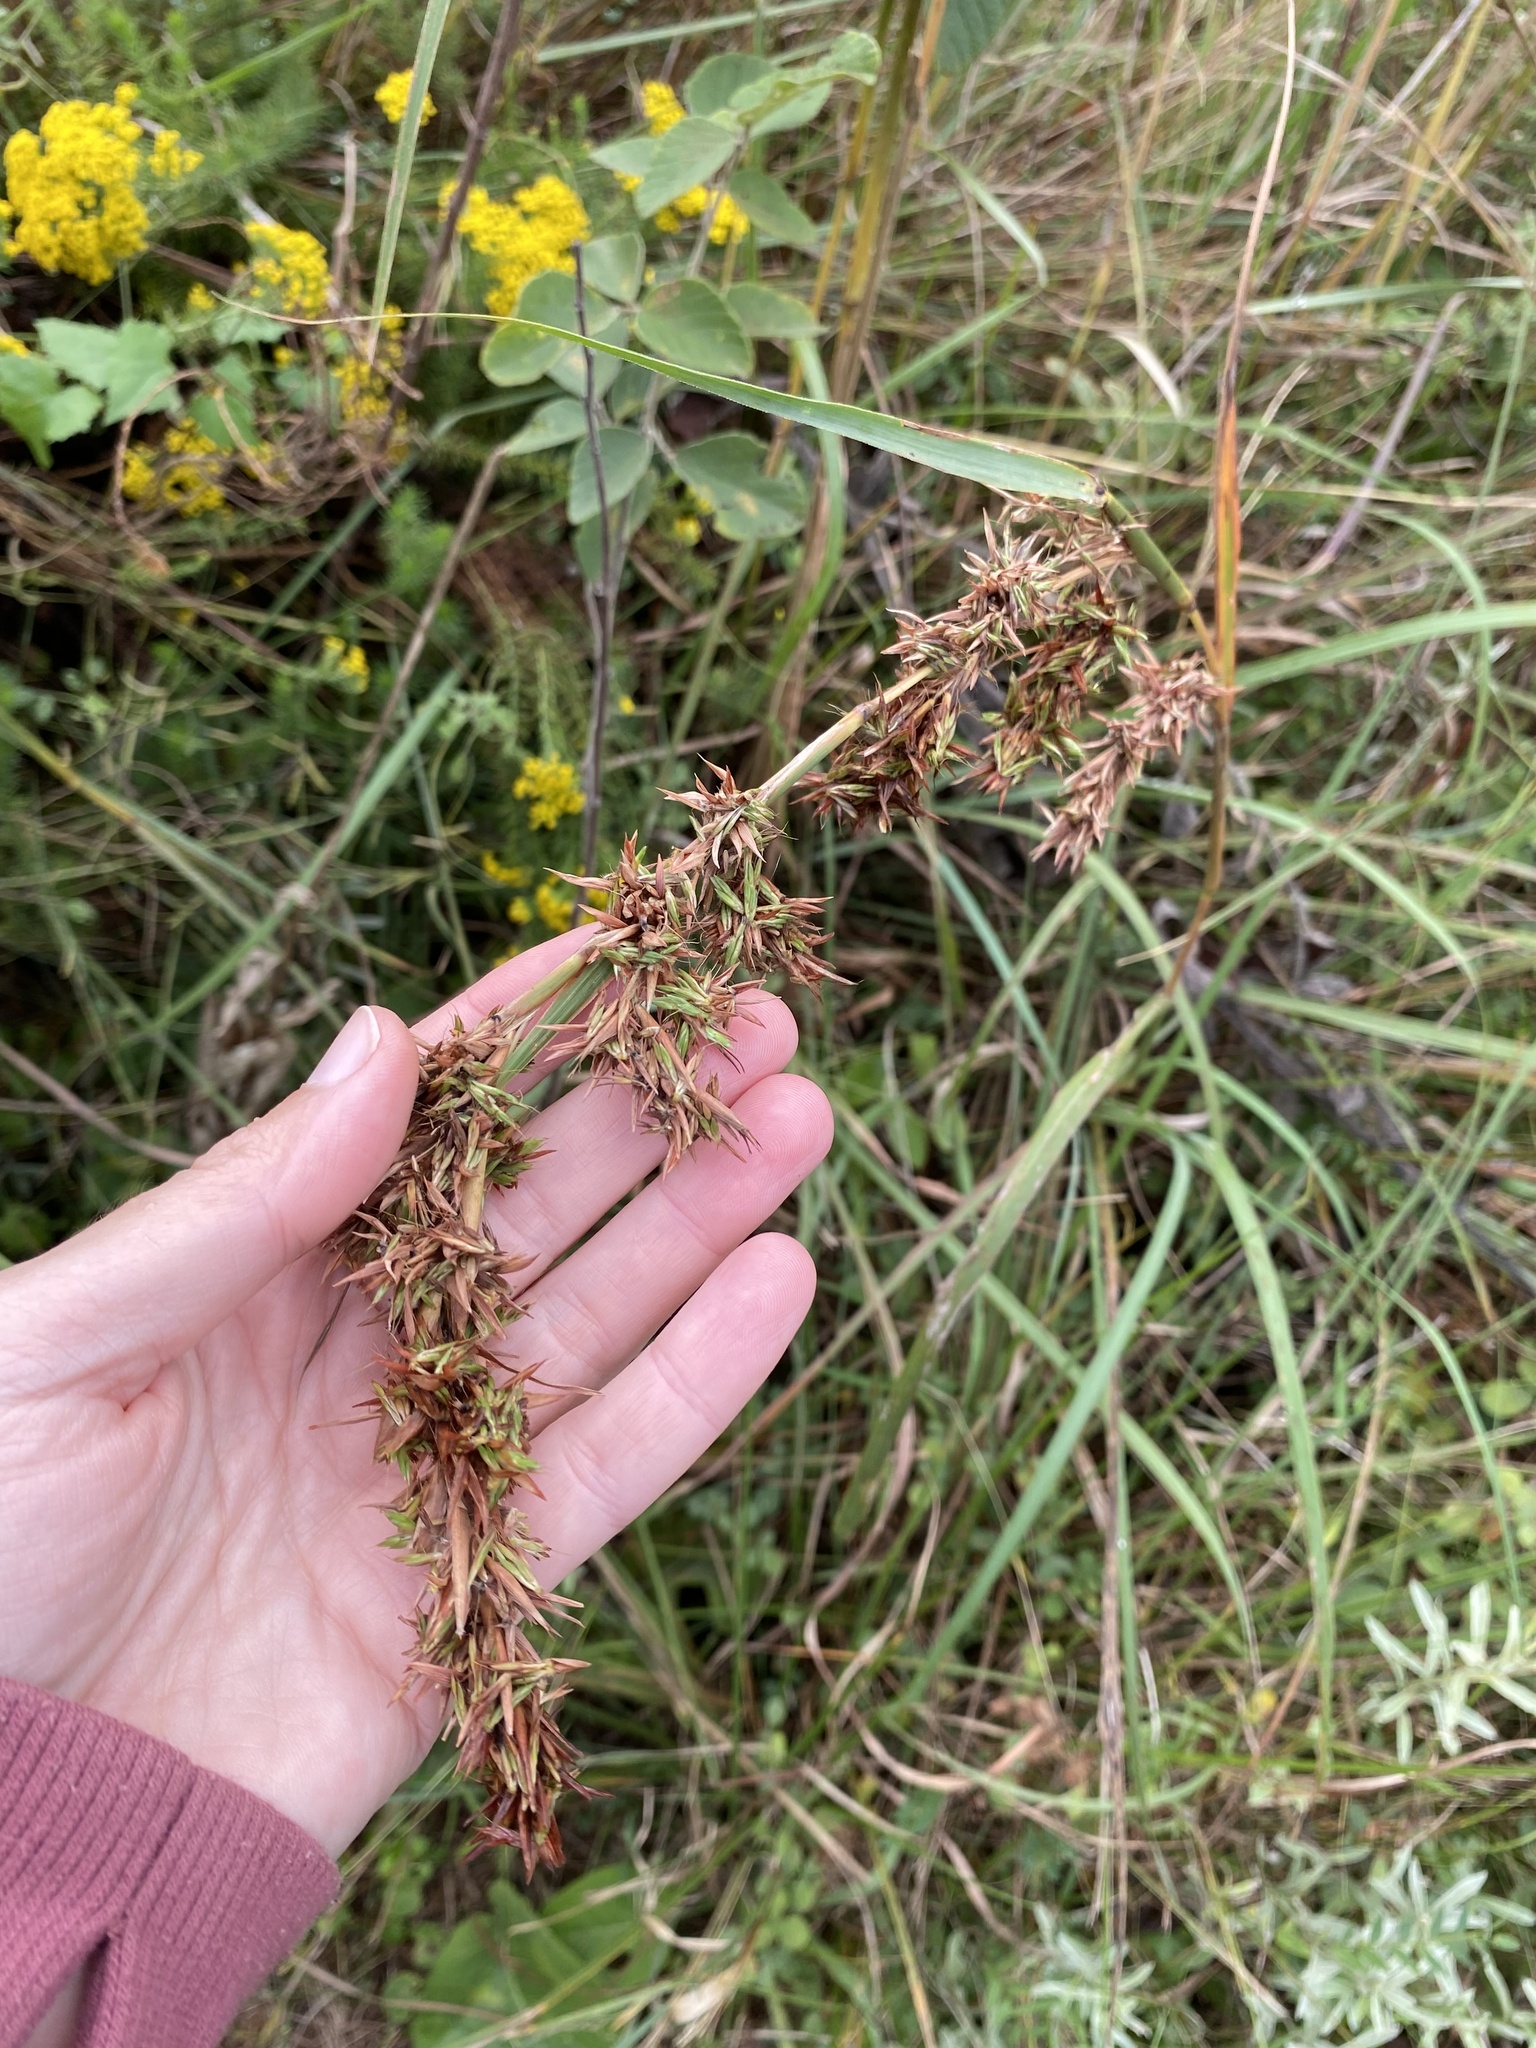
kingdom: Plantae
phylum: Tracheophyta
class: Liliopsida
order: Poales
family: Poaceae
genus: Cymbopogon
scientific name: Cymbopogon nardus
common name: Giant turpentine grass
